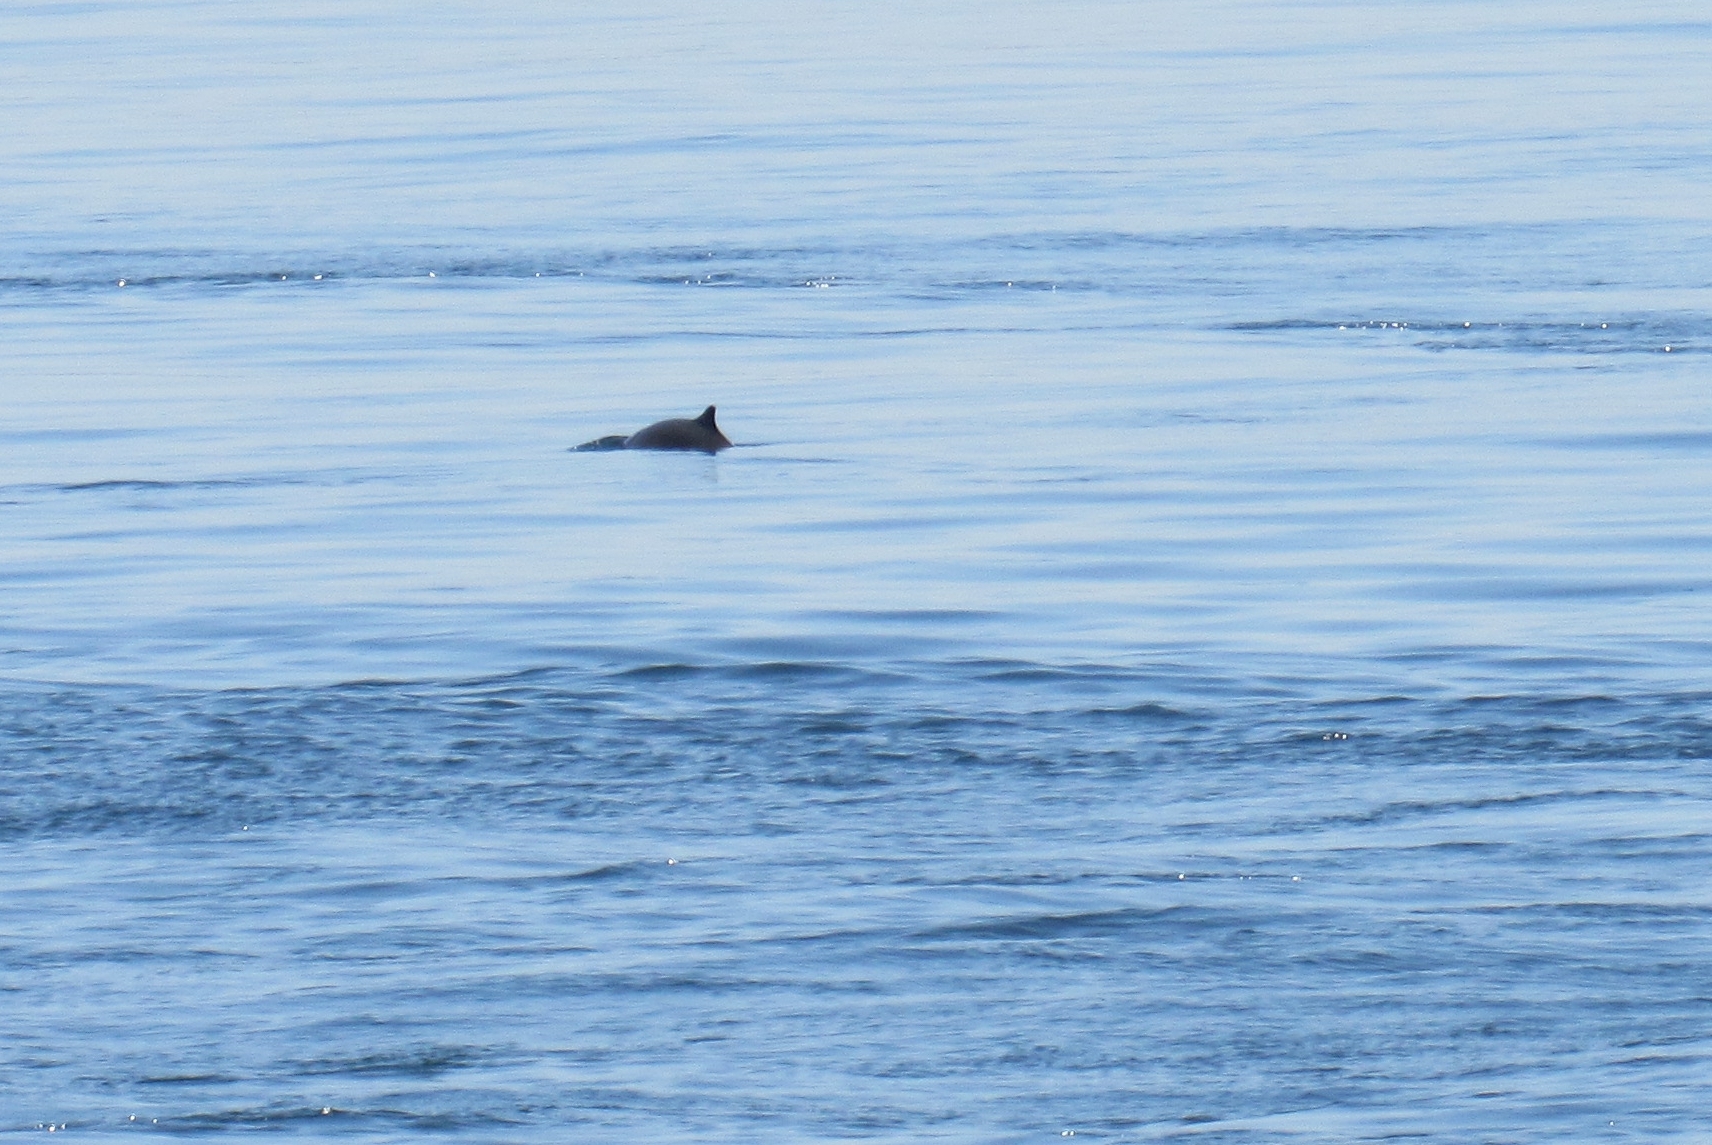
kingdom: Animalia
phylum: Chordata
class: Mammalia
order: Cetacea
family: Phocoenidae
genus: Phocoena
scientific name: Phocoena phocoena
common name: Harbor porpoise
